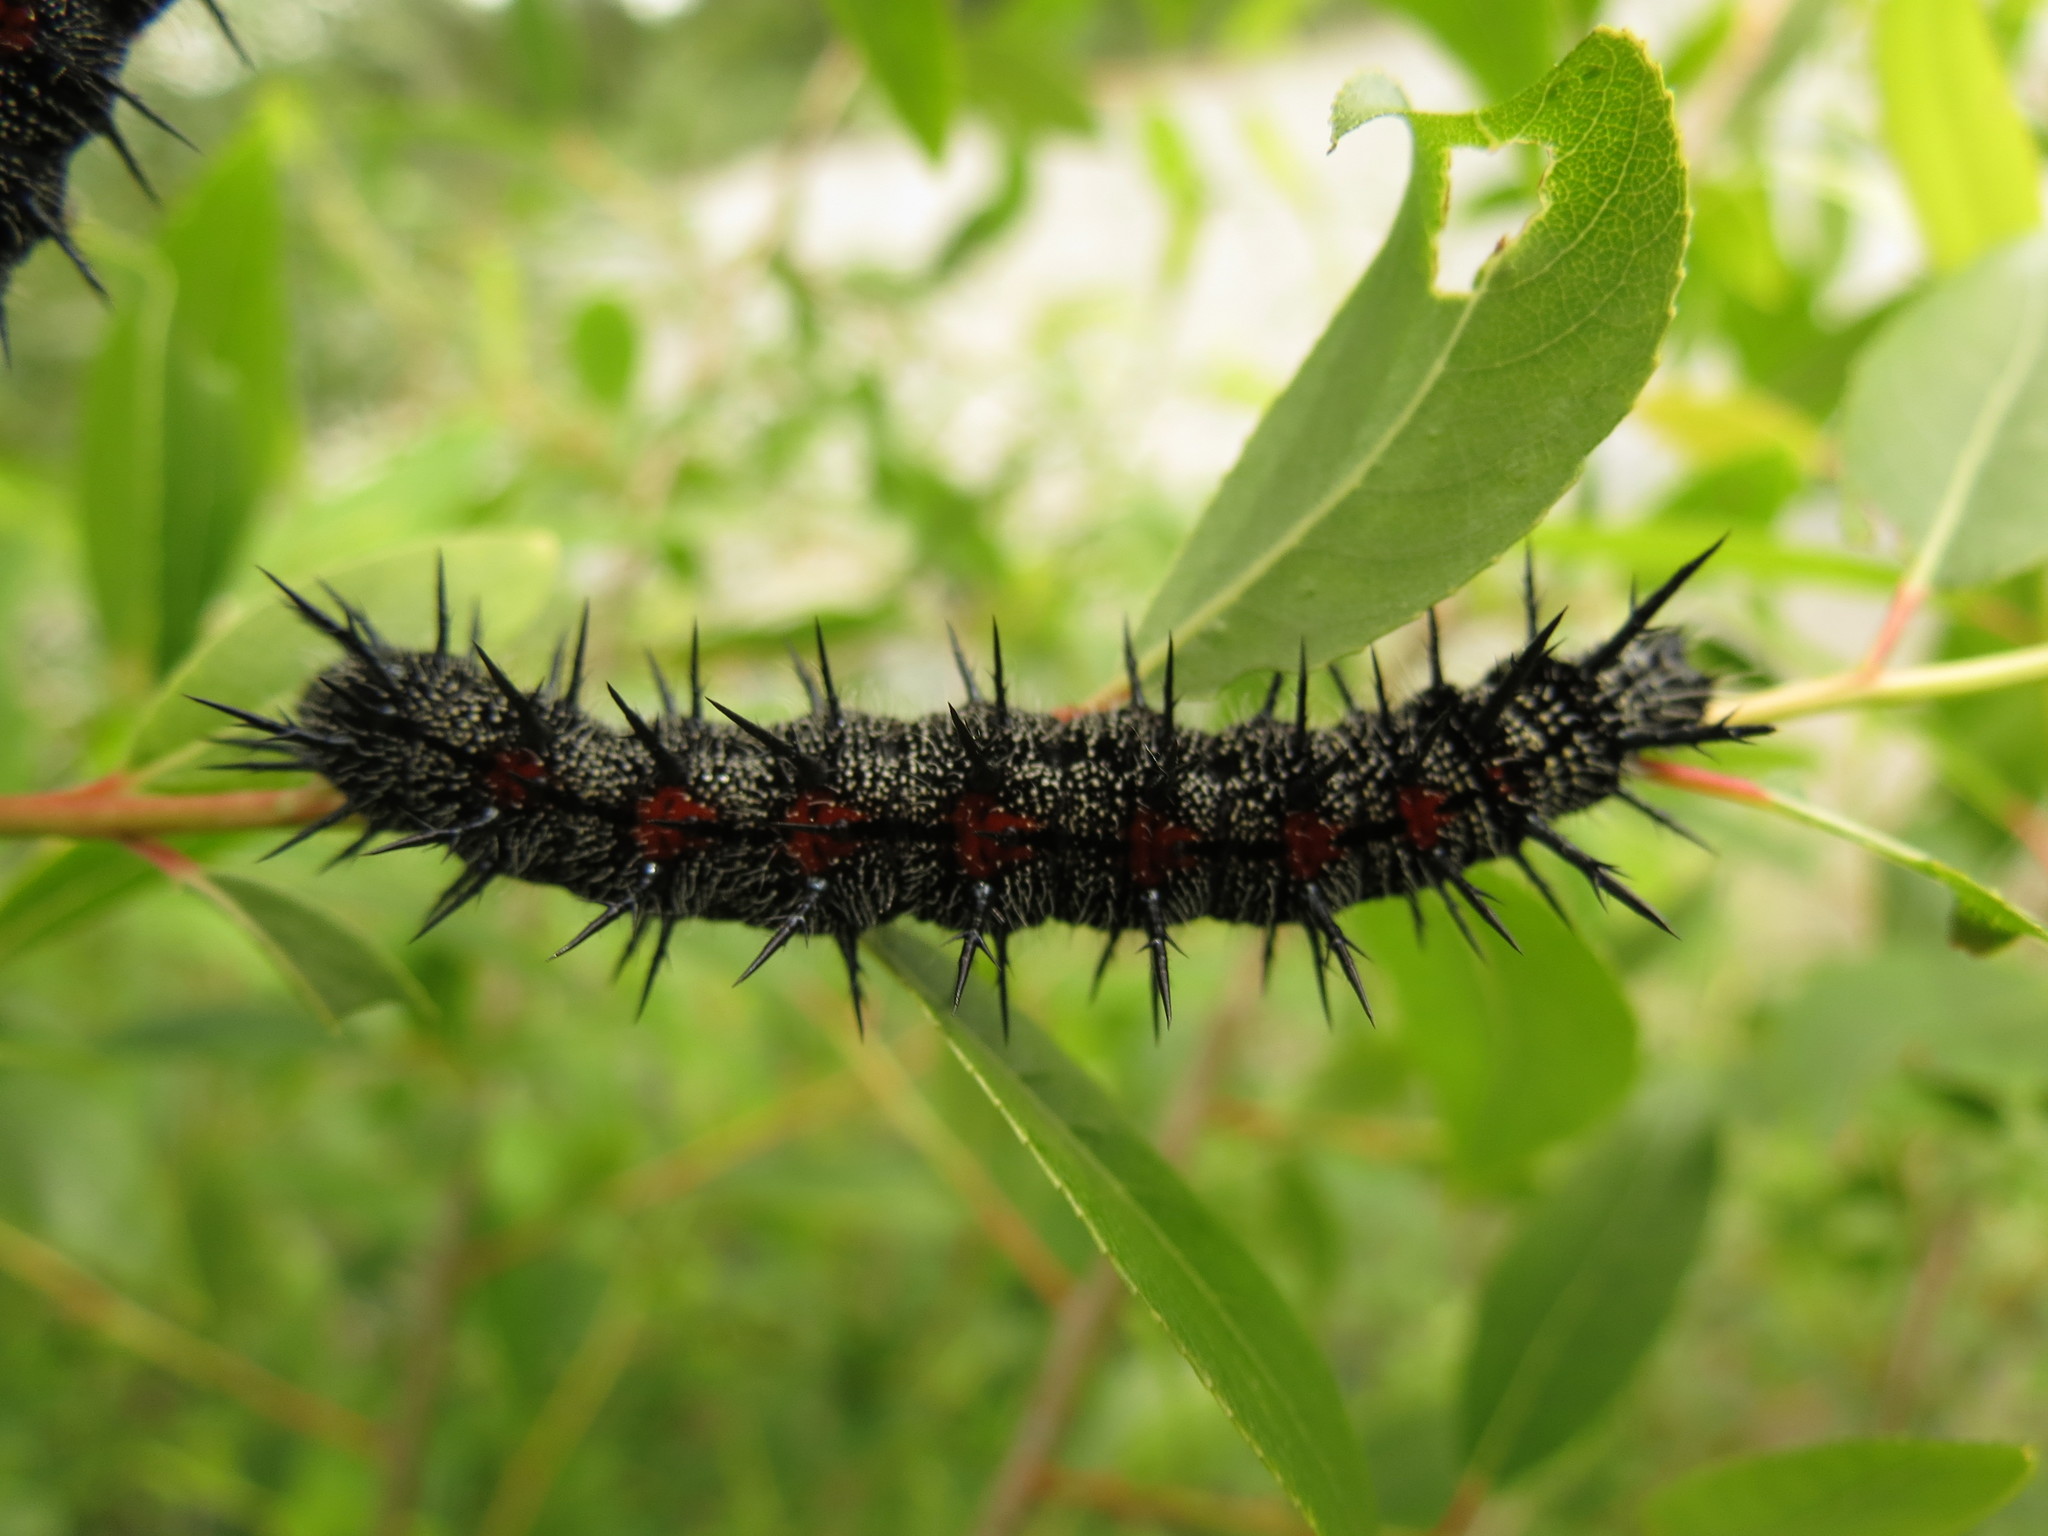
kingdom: Animalia
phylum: Arthropoda
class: Insecta
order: Lepidoptera
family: Nymphalidae
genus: Nymphalis
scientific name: Nymphalis antiopa
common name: Camberwell beauty
